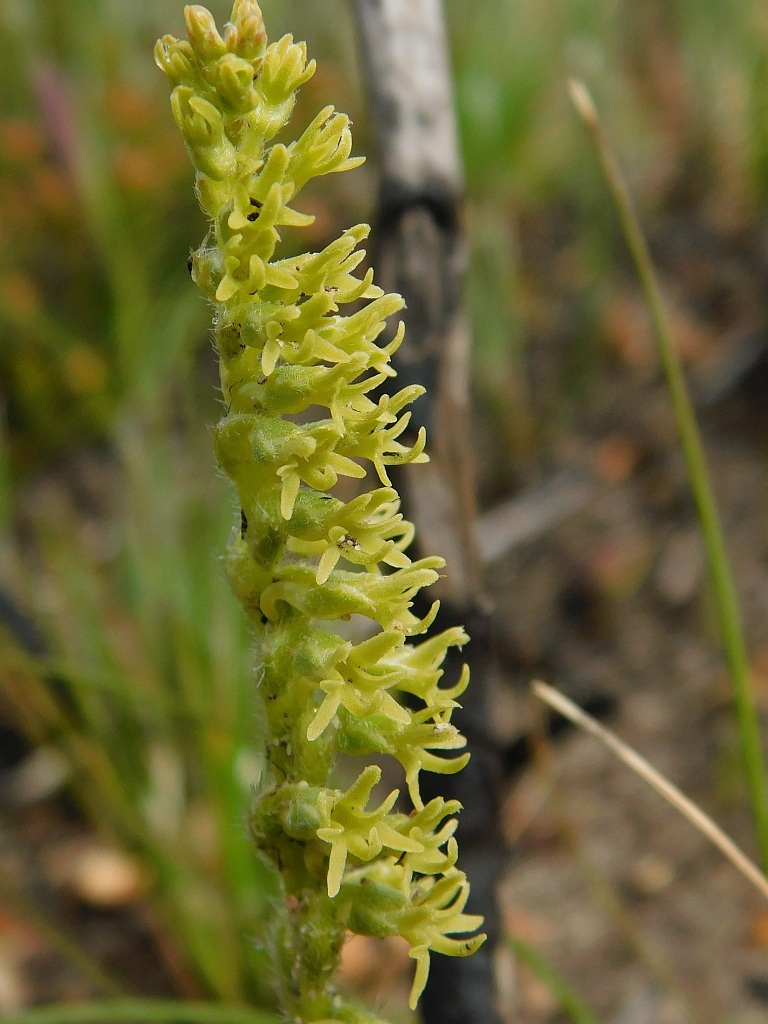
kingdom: Plantae
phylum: Tracheophyta
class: Liliopsida
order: Asparagales
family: Orchidaceae
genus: Holothrix
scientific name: Holothrix cernua
